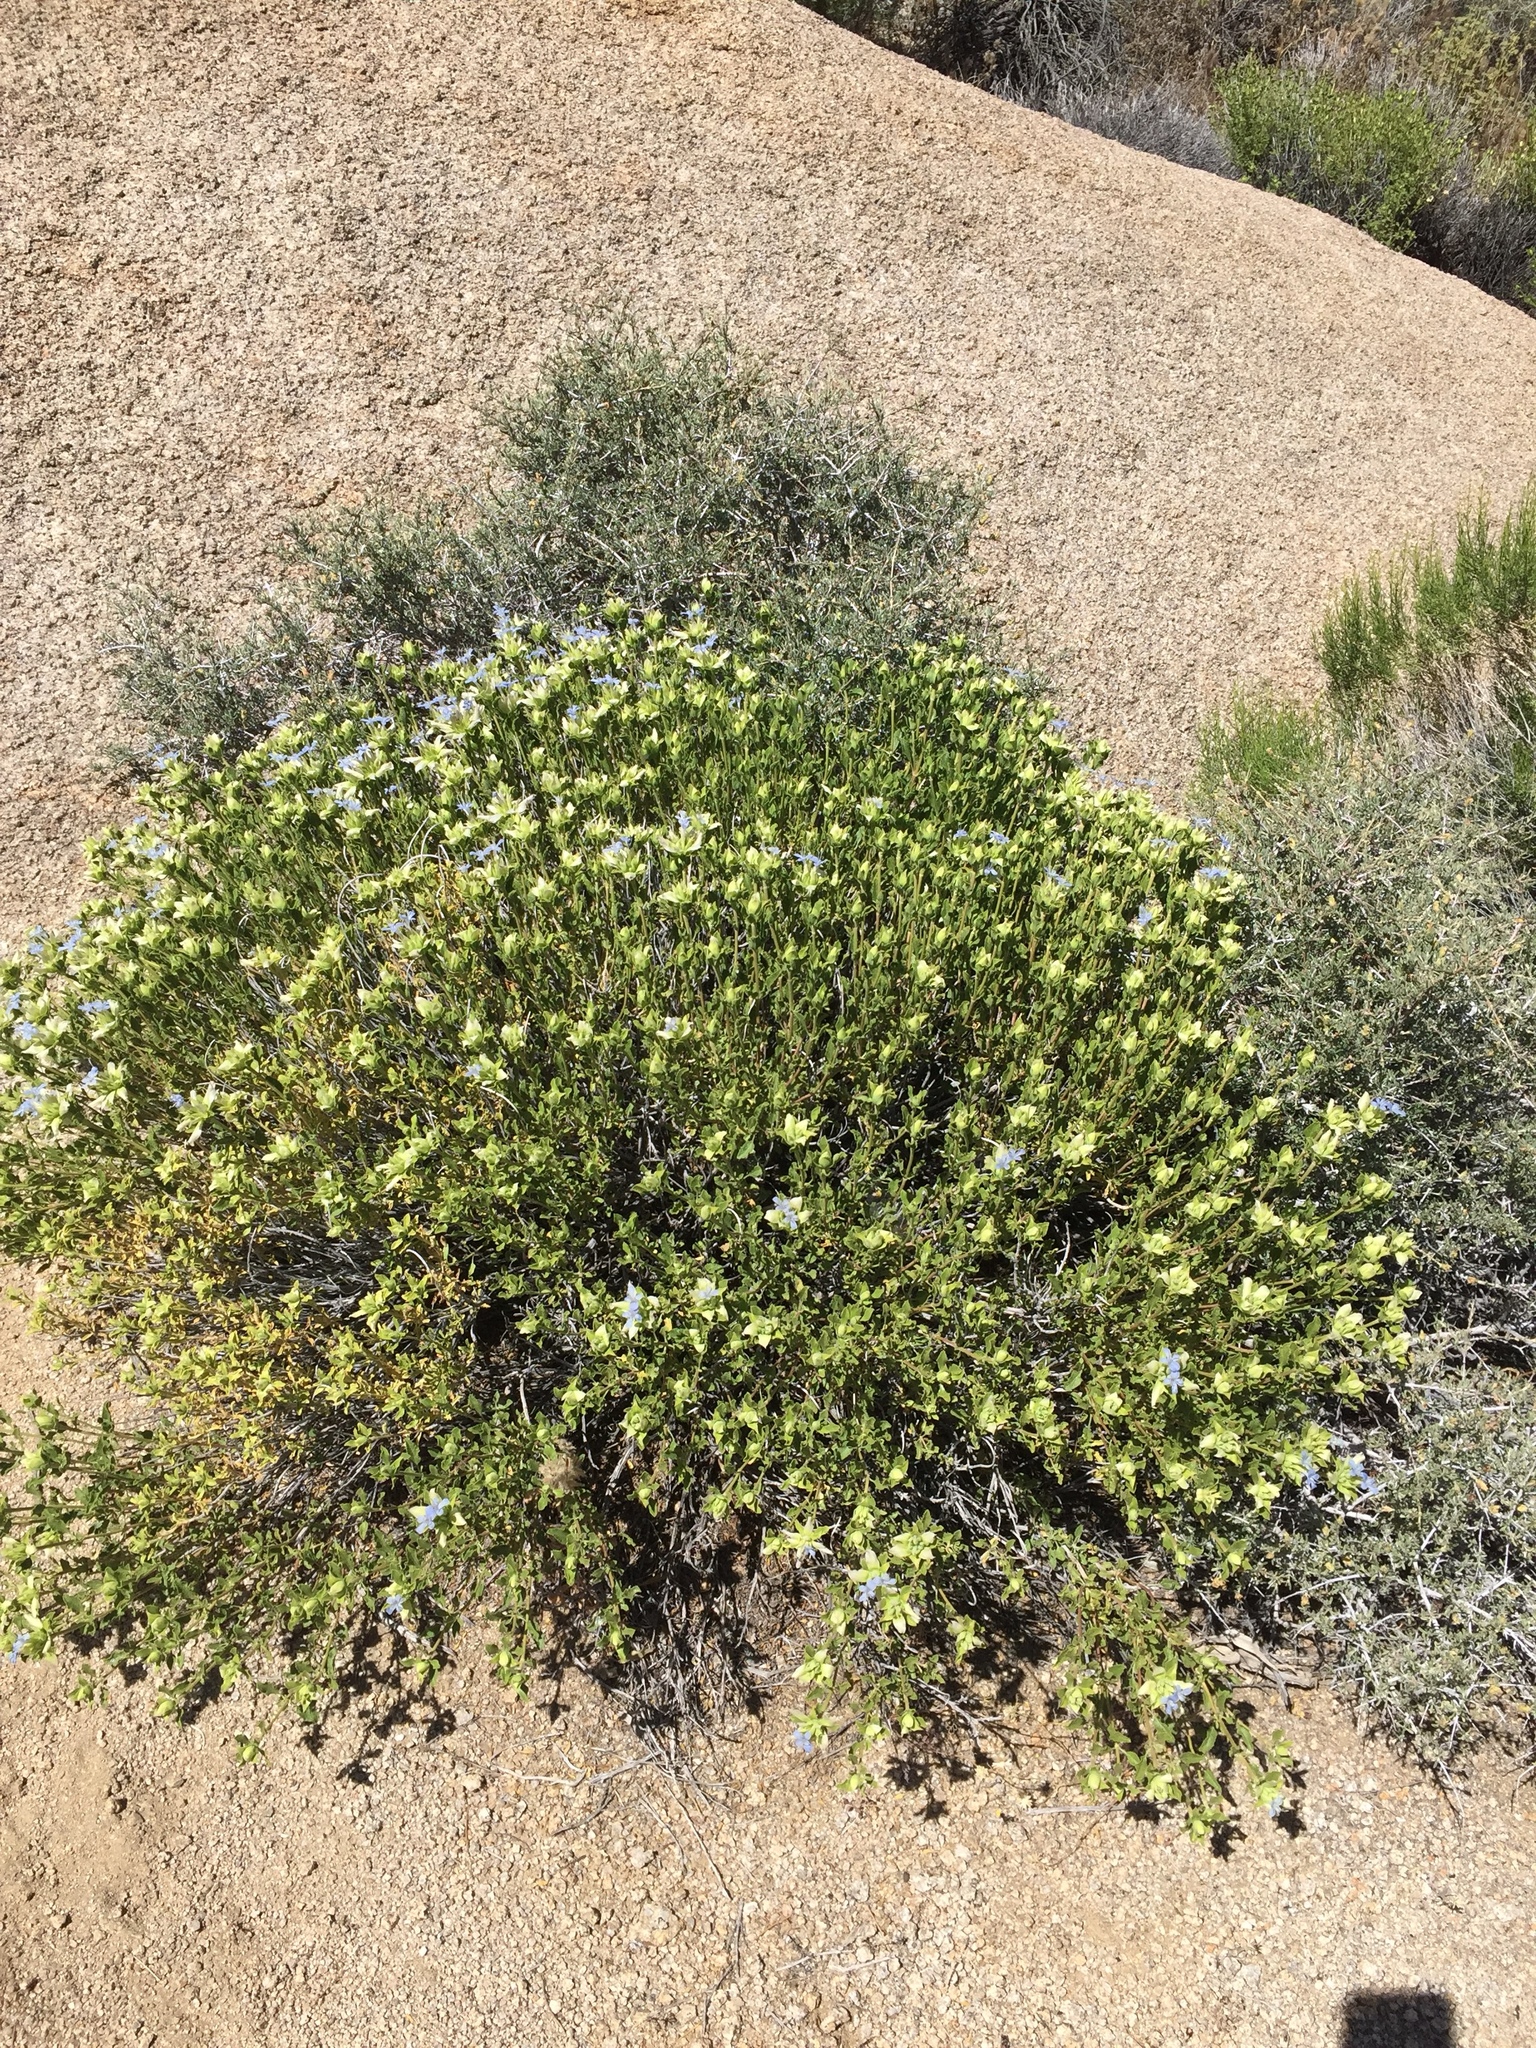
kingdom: Plantae
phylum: Tracheophyta
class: Magnoliopsida
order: Lamiales
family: Lamiaceae
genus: Salvia
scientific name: Salvia mohavensis
